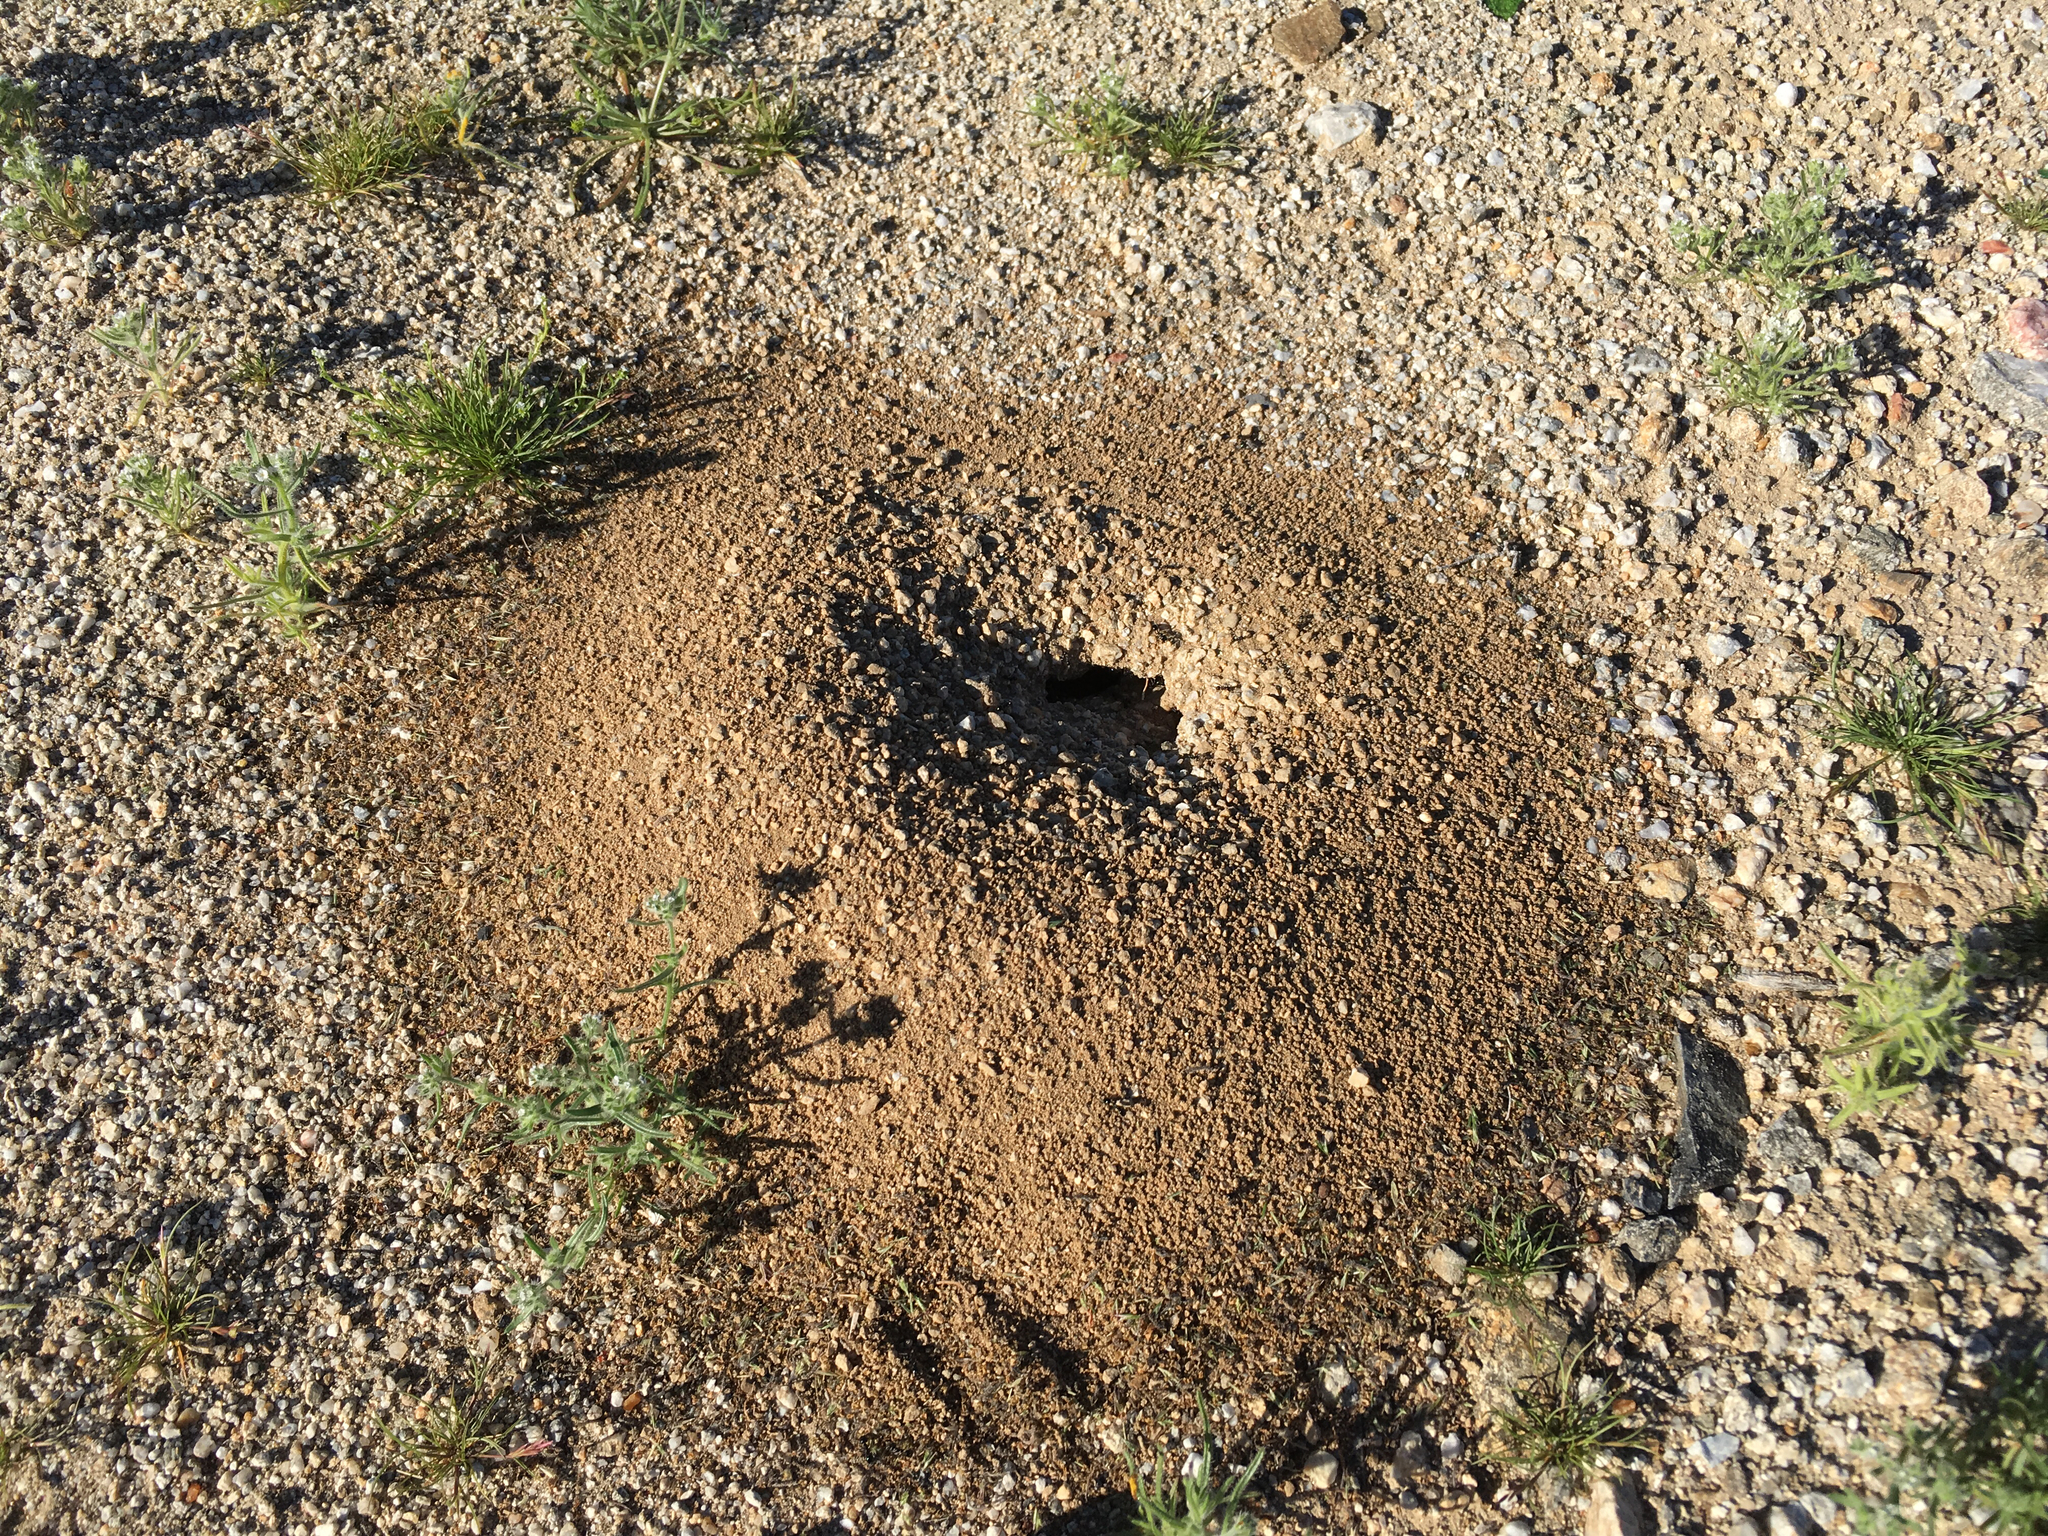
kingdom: Animalia
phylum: Arthropoda
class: Insecta
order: Hymenoptera
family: Formicidae
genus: Messor
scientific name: Messor pergandei
